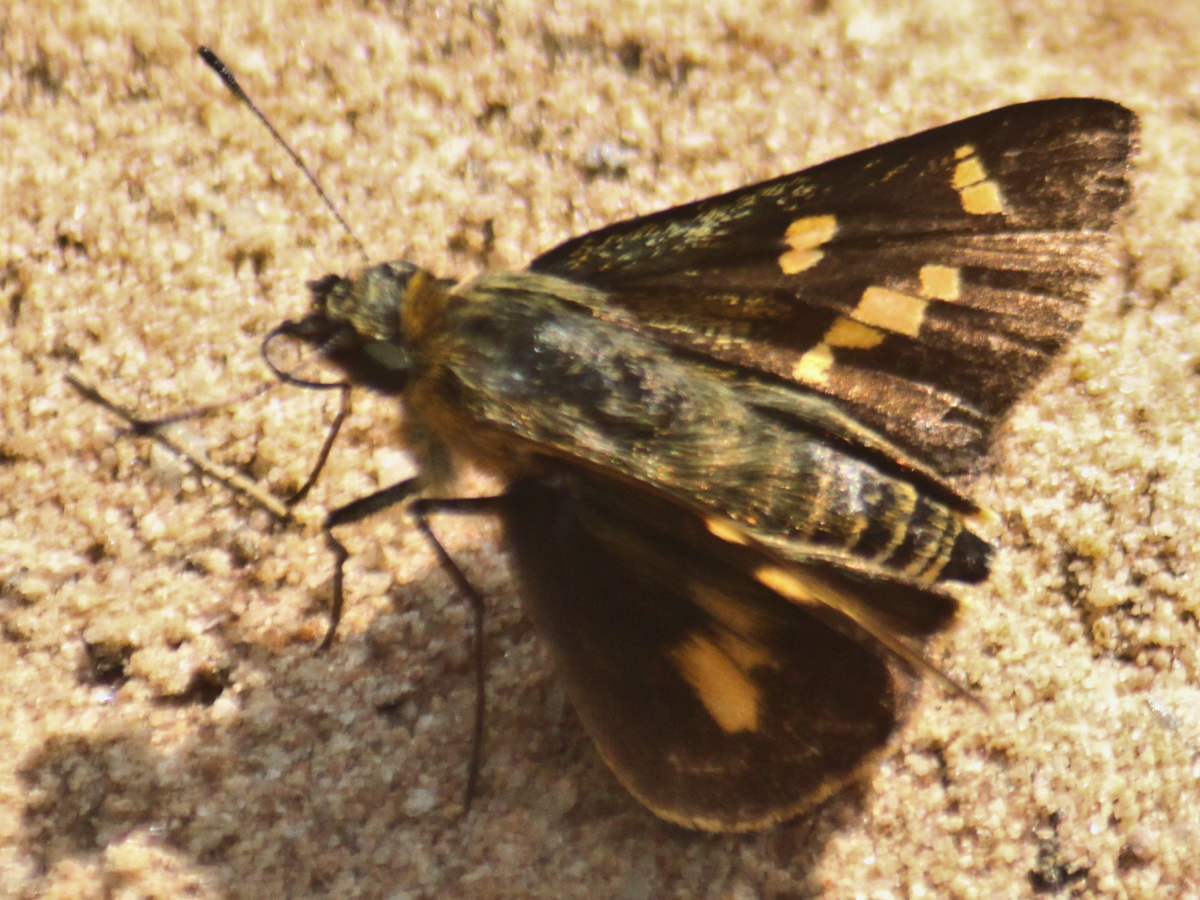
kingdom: Animalia
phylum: Arthropoda
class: Insecta
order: Lepidoptera
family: Hesperiidae
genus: Thoressa
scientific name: Thoressa masoni
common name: Golden ace
